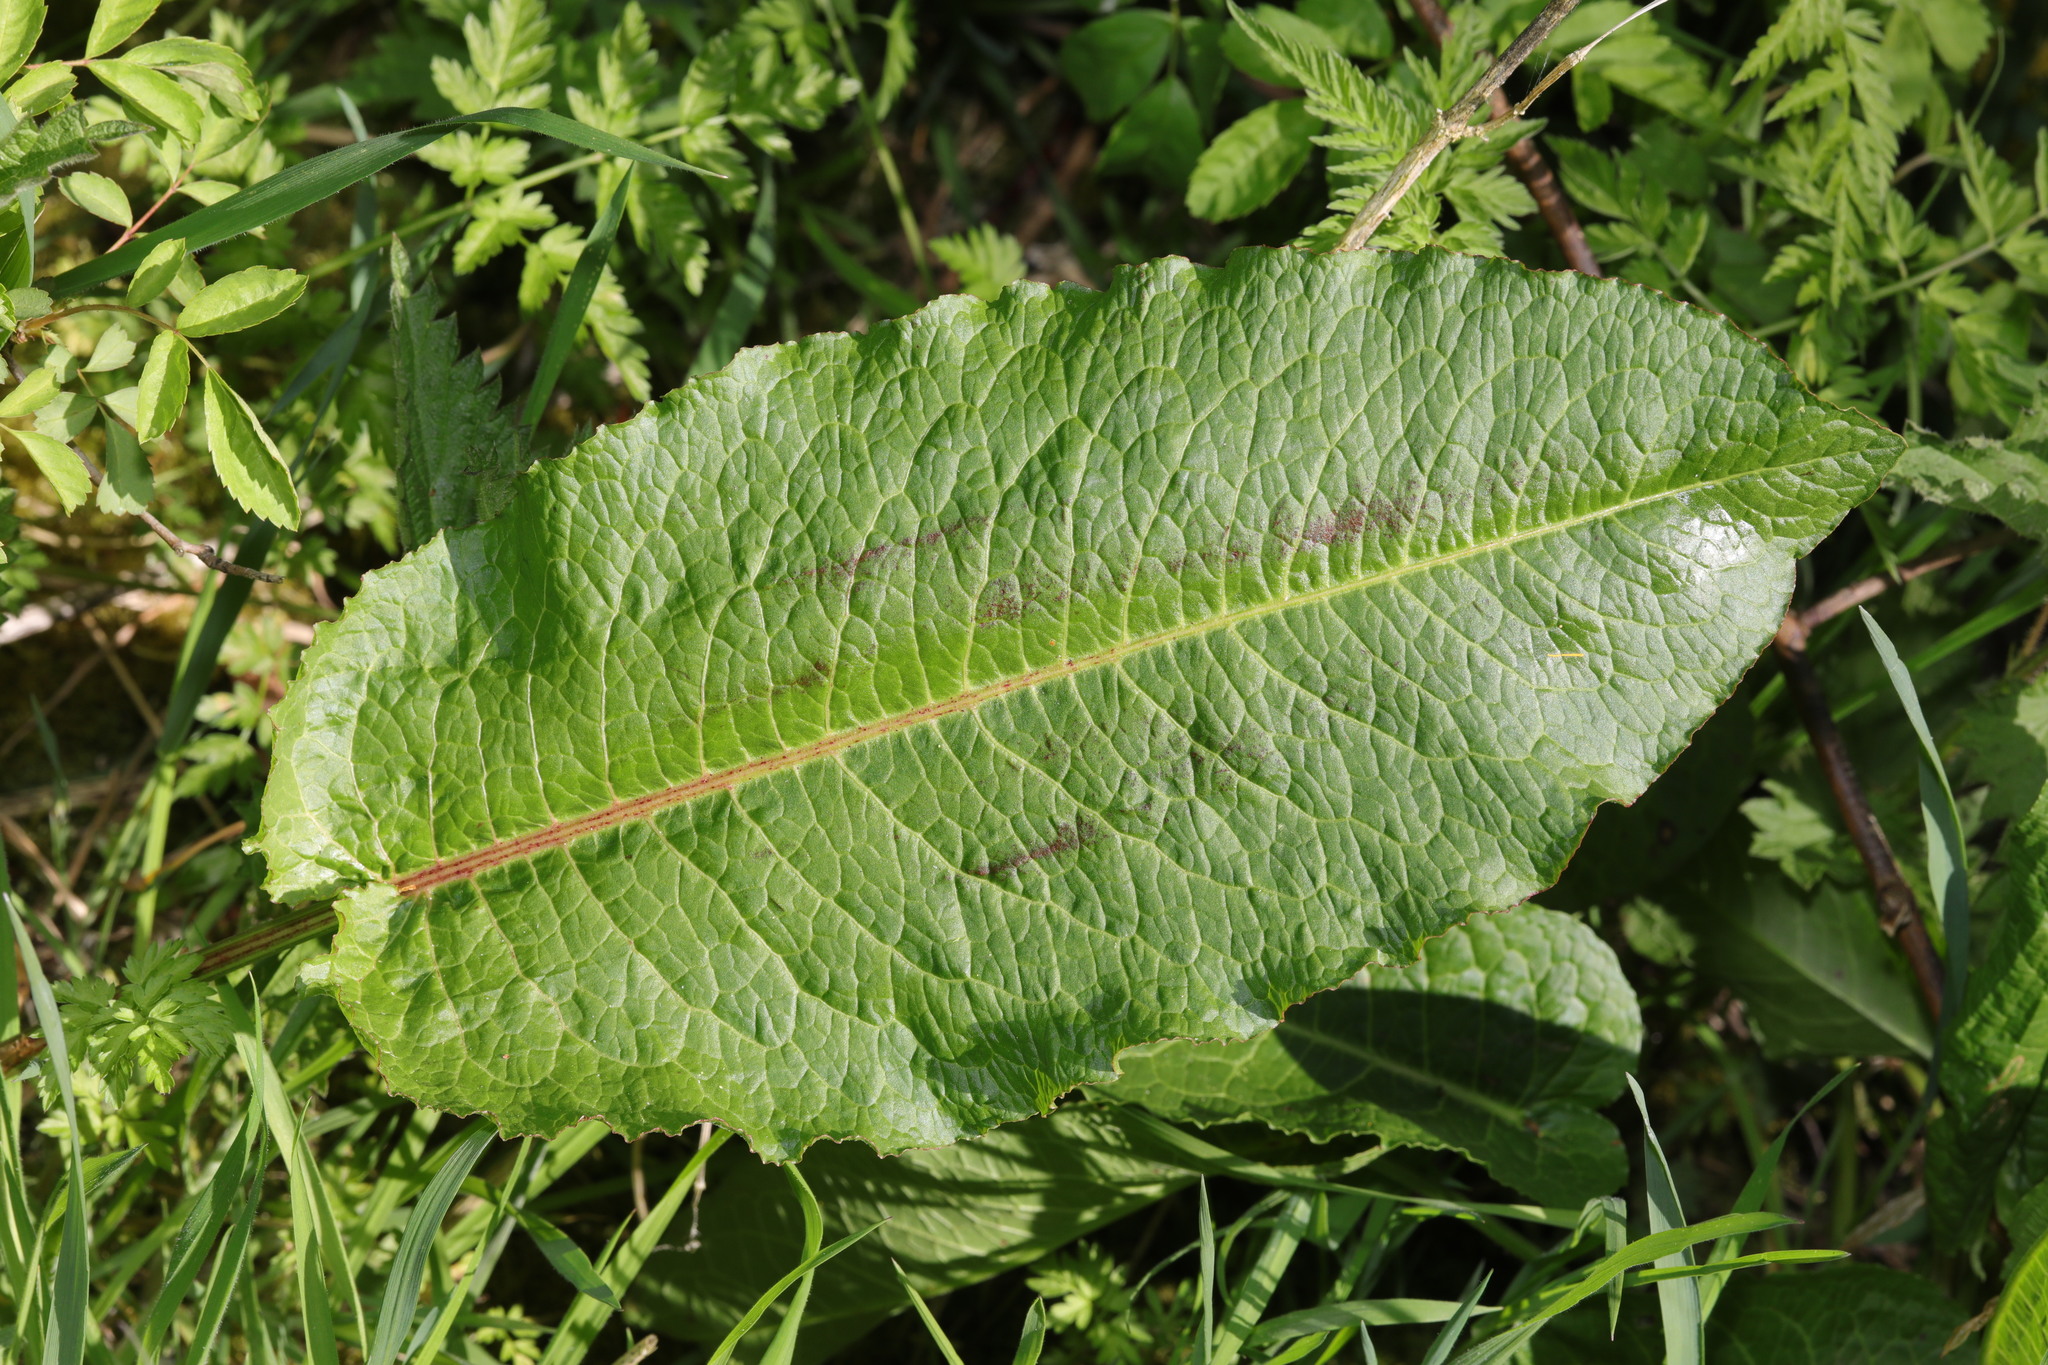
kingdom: Plantae
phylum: Tracheophyta
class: Magnoliopsida
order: Caryophyllales
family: Polygonaceae
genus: Rumex
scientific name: Rumex obtusifolius
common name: Bitter dock
